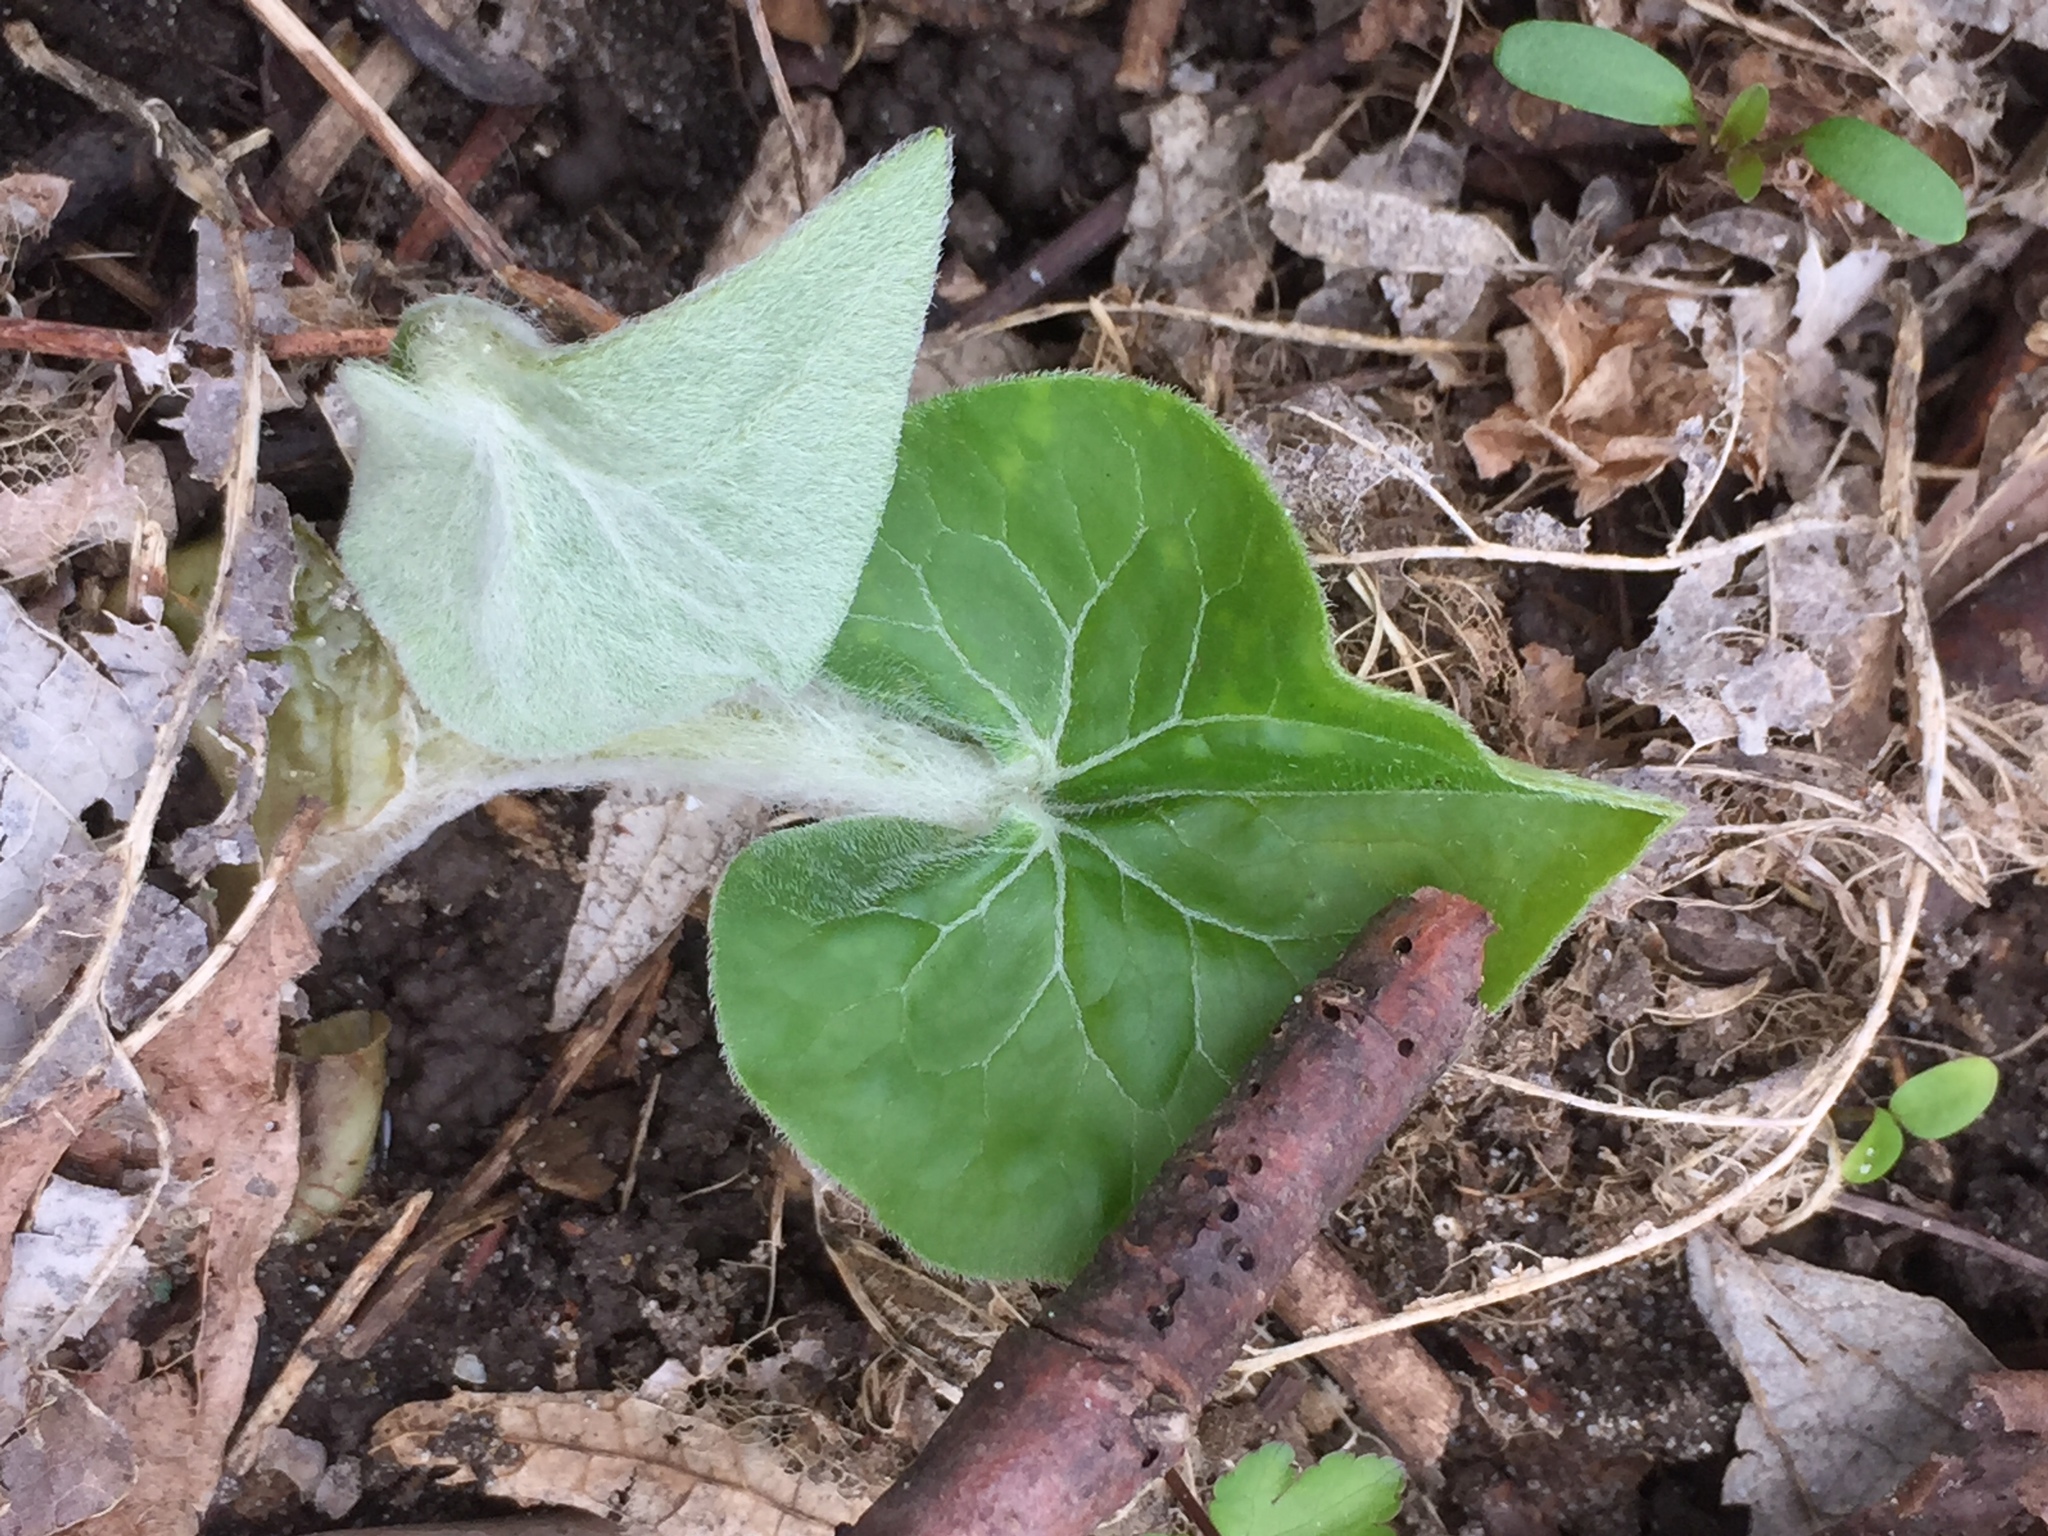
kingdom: Plantae
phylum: Tracheophyta
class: Magnoliopsida
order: Piperales
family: Aristolochiaceae
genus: Asarum
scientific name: Asarum canadense
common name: Wild ginger
